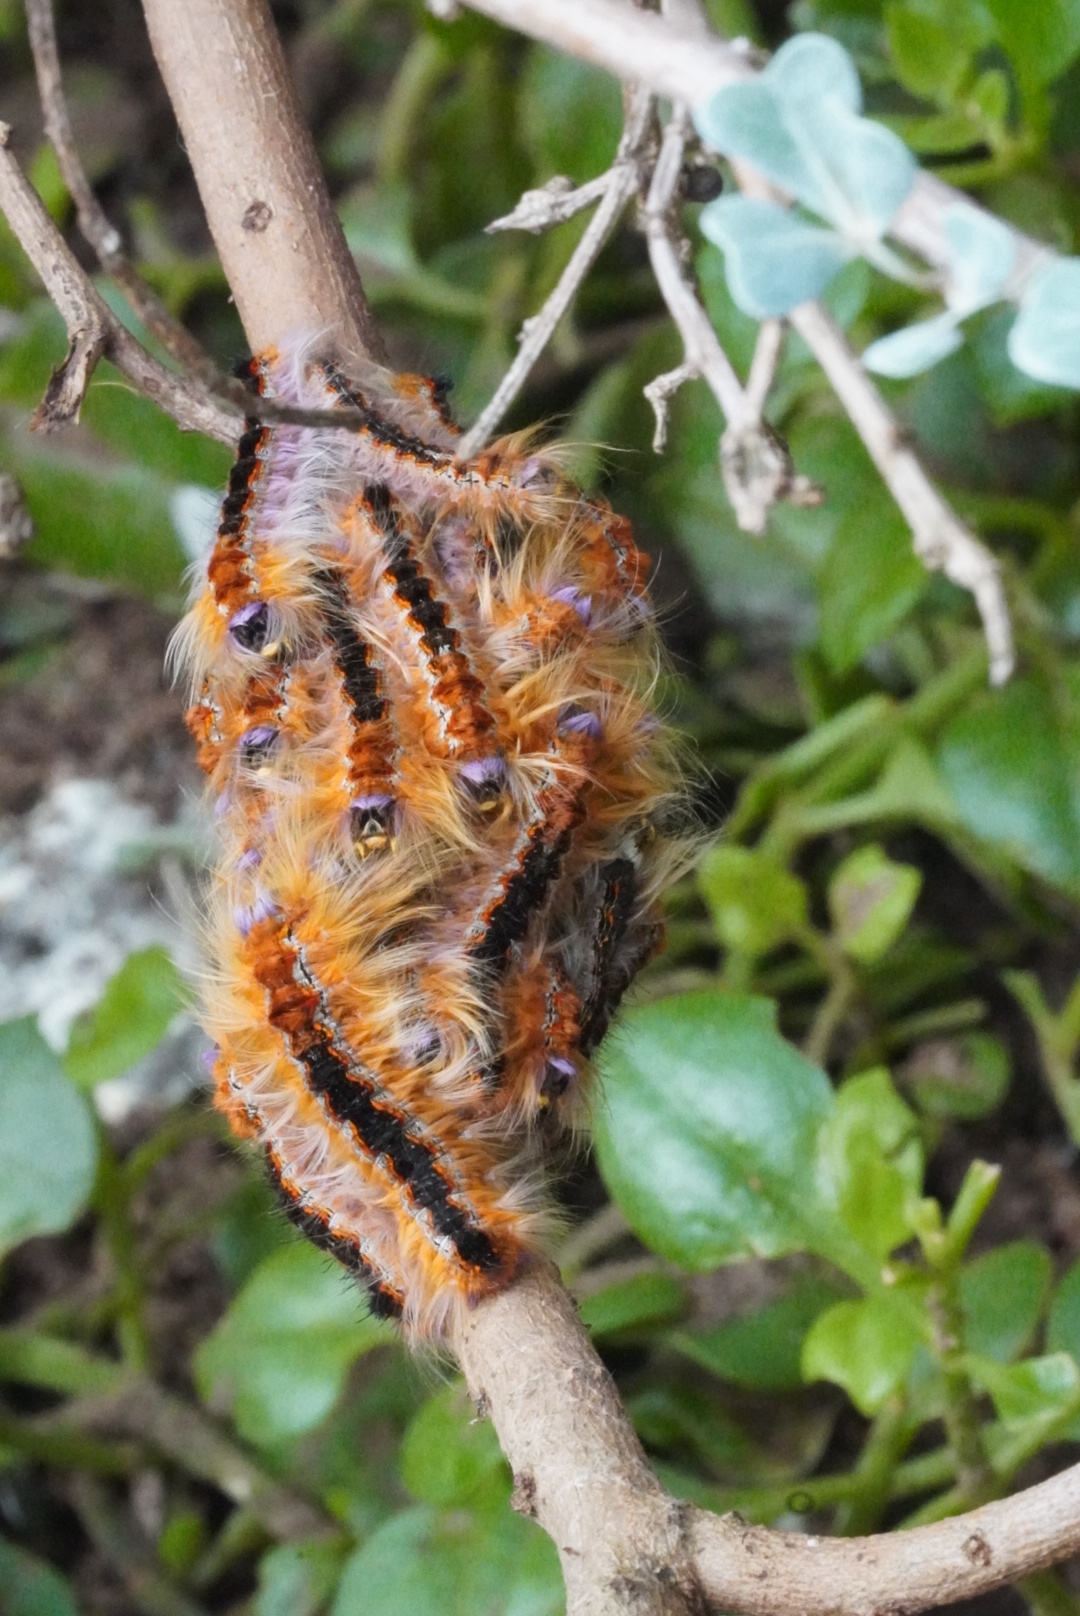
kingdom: Animalia
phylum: Arthropoda
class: Insecta
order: Lepidoptera
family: Lasiocampidae
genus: Eutricha
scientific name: Eutricha capensis
